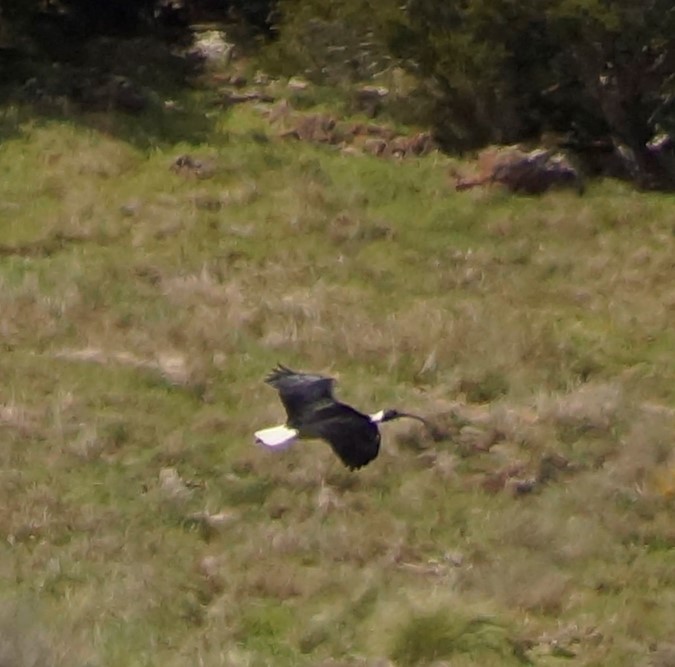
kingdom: Animalia
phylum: Chordata
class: Aves
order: Pelecaniformes
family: Threskiornithidae
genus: Threskiornis
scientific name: Threskiornis spinicollis
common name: Straw-necked ibis
